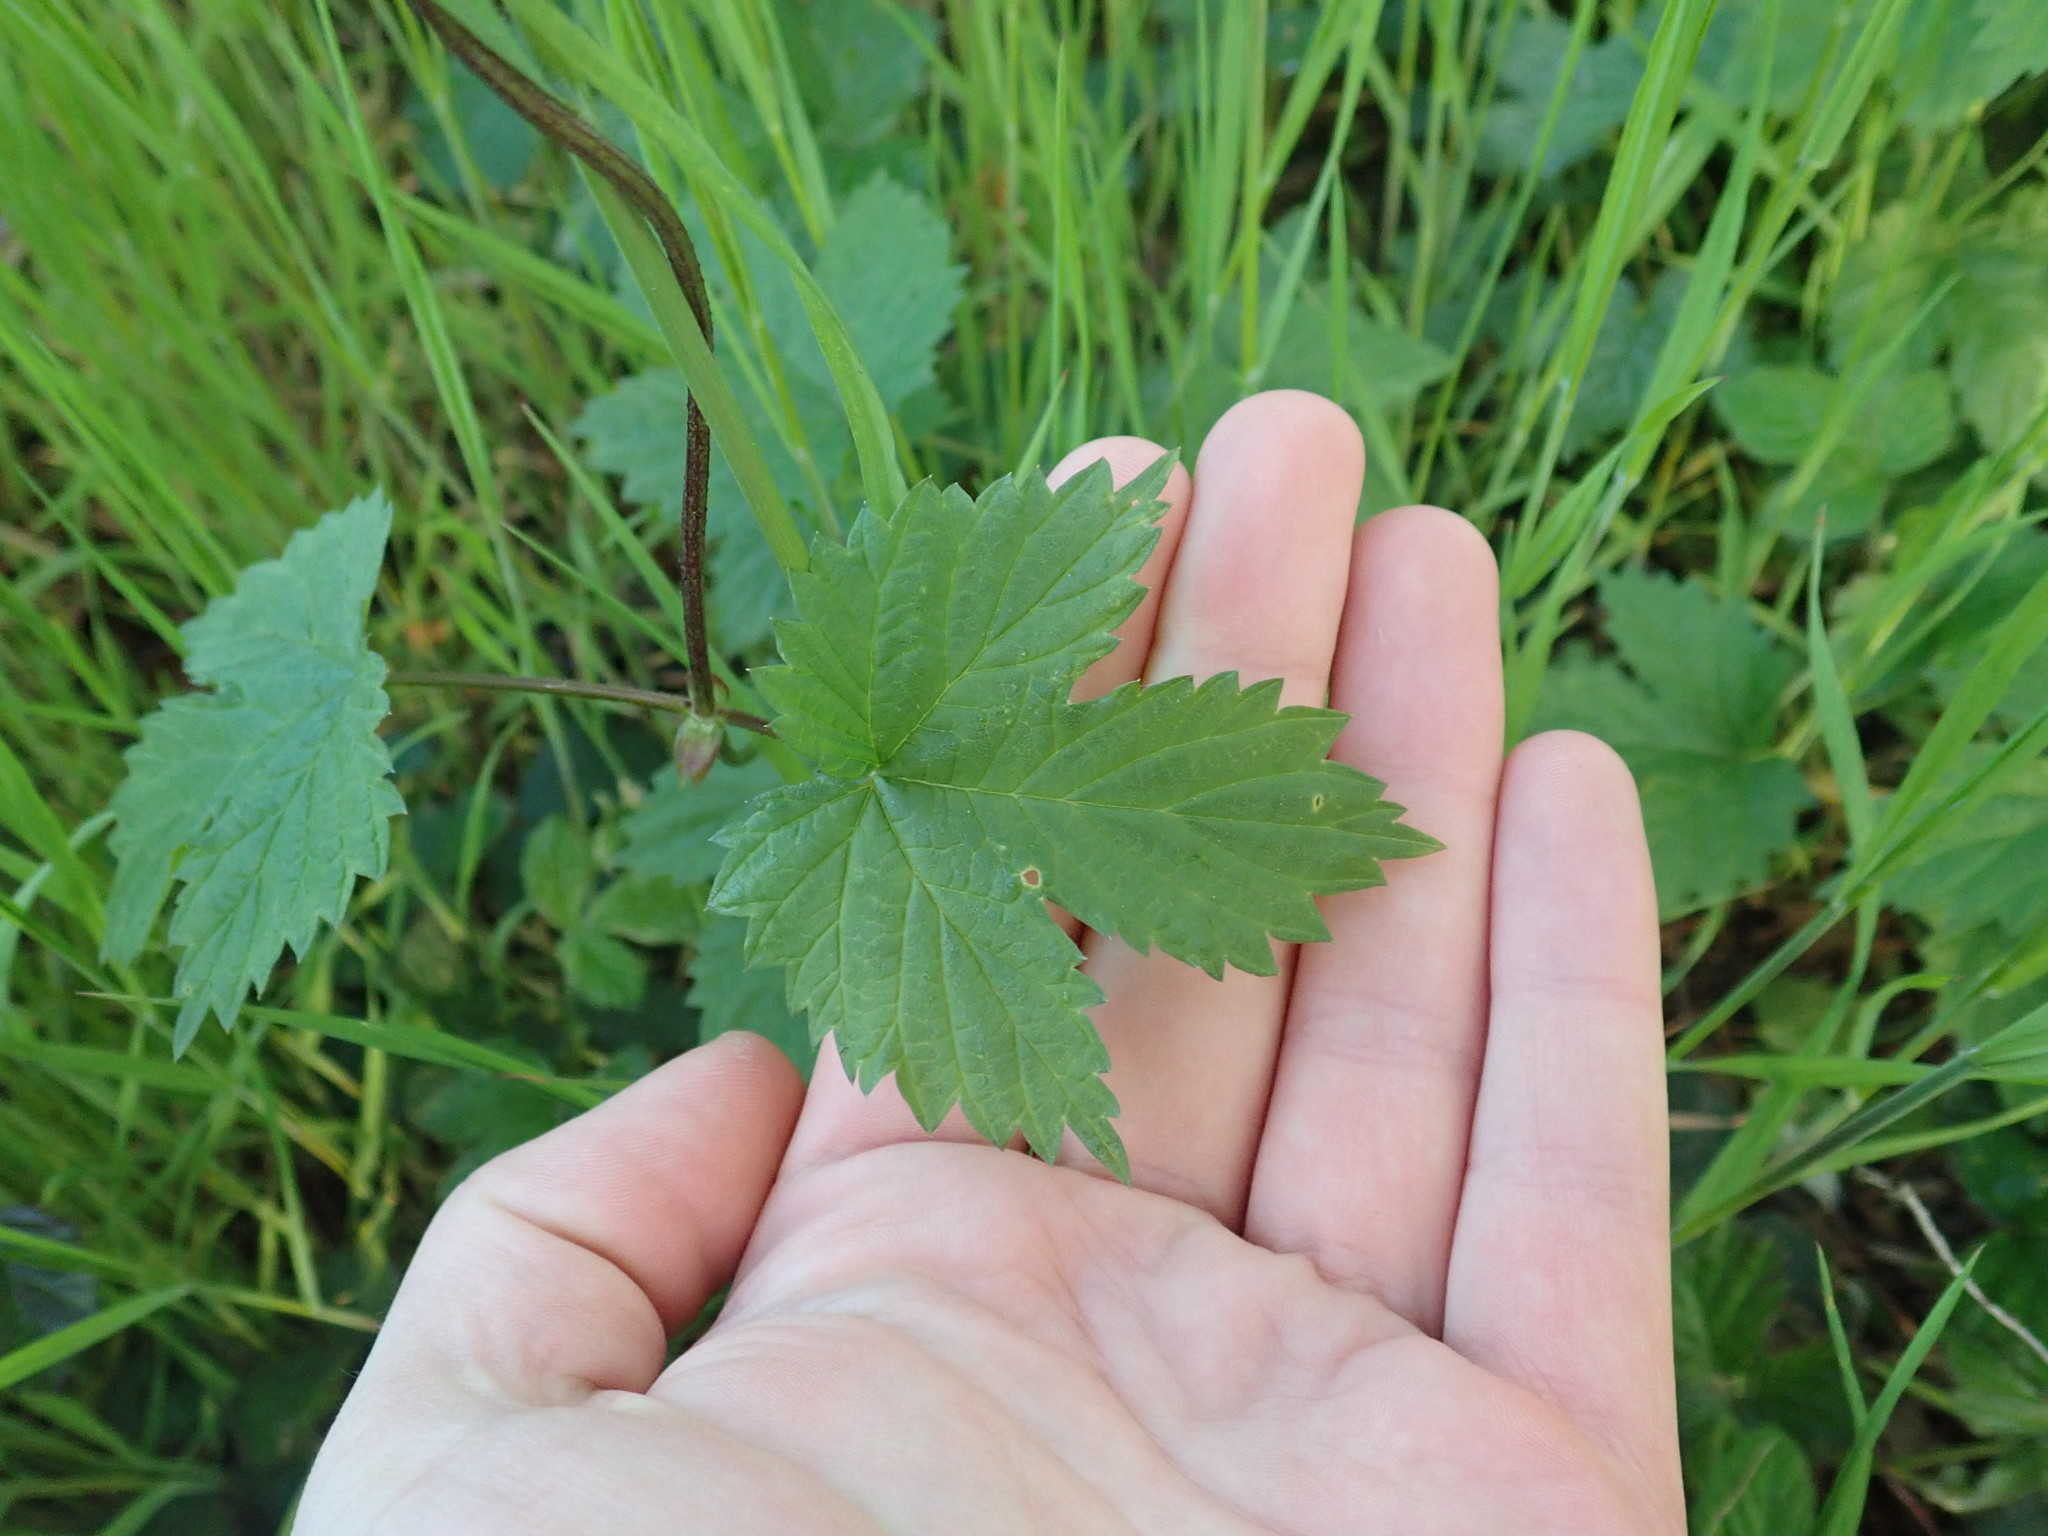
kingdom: Plantae
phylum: Tracheophyta
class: Magnoliopsida
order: Rosales
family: Cannabaceae
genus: Humulus
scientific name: Humulus lupulus
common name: Hop
